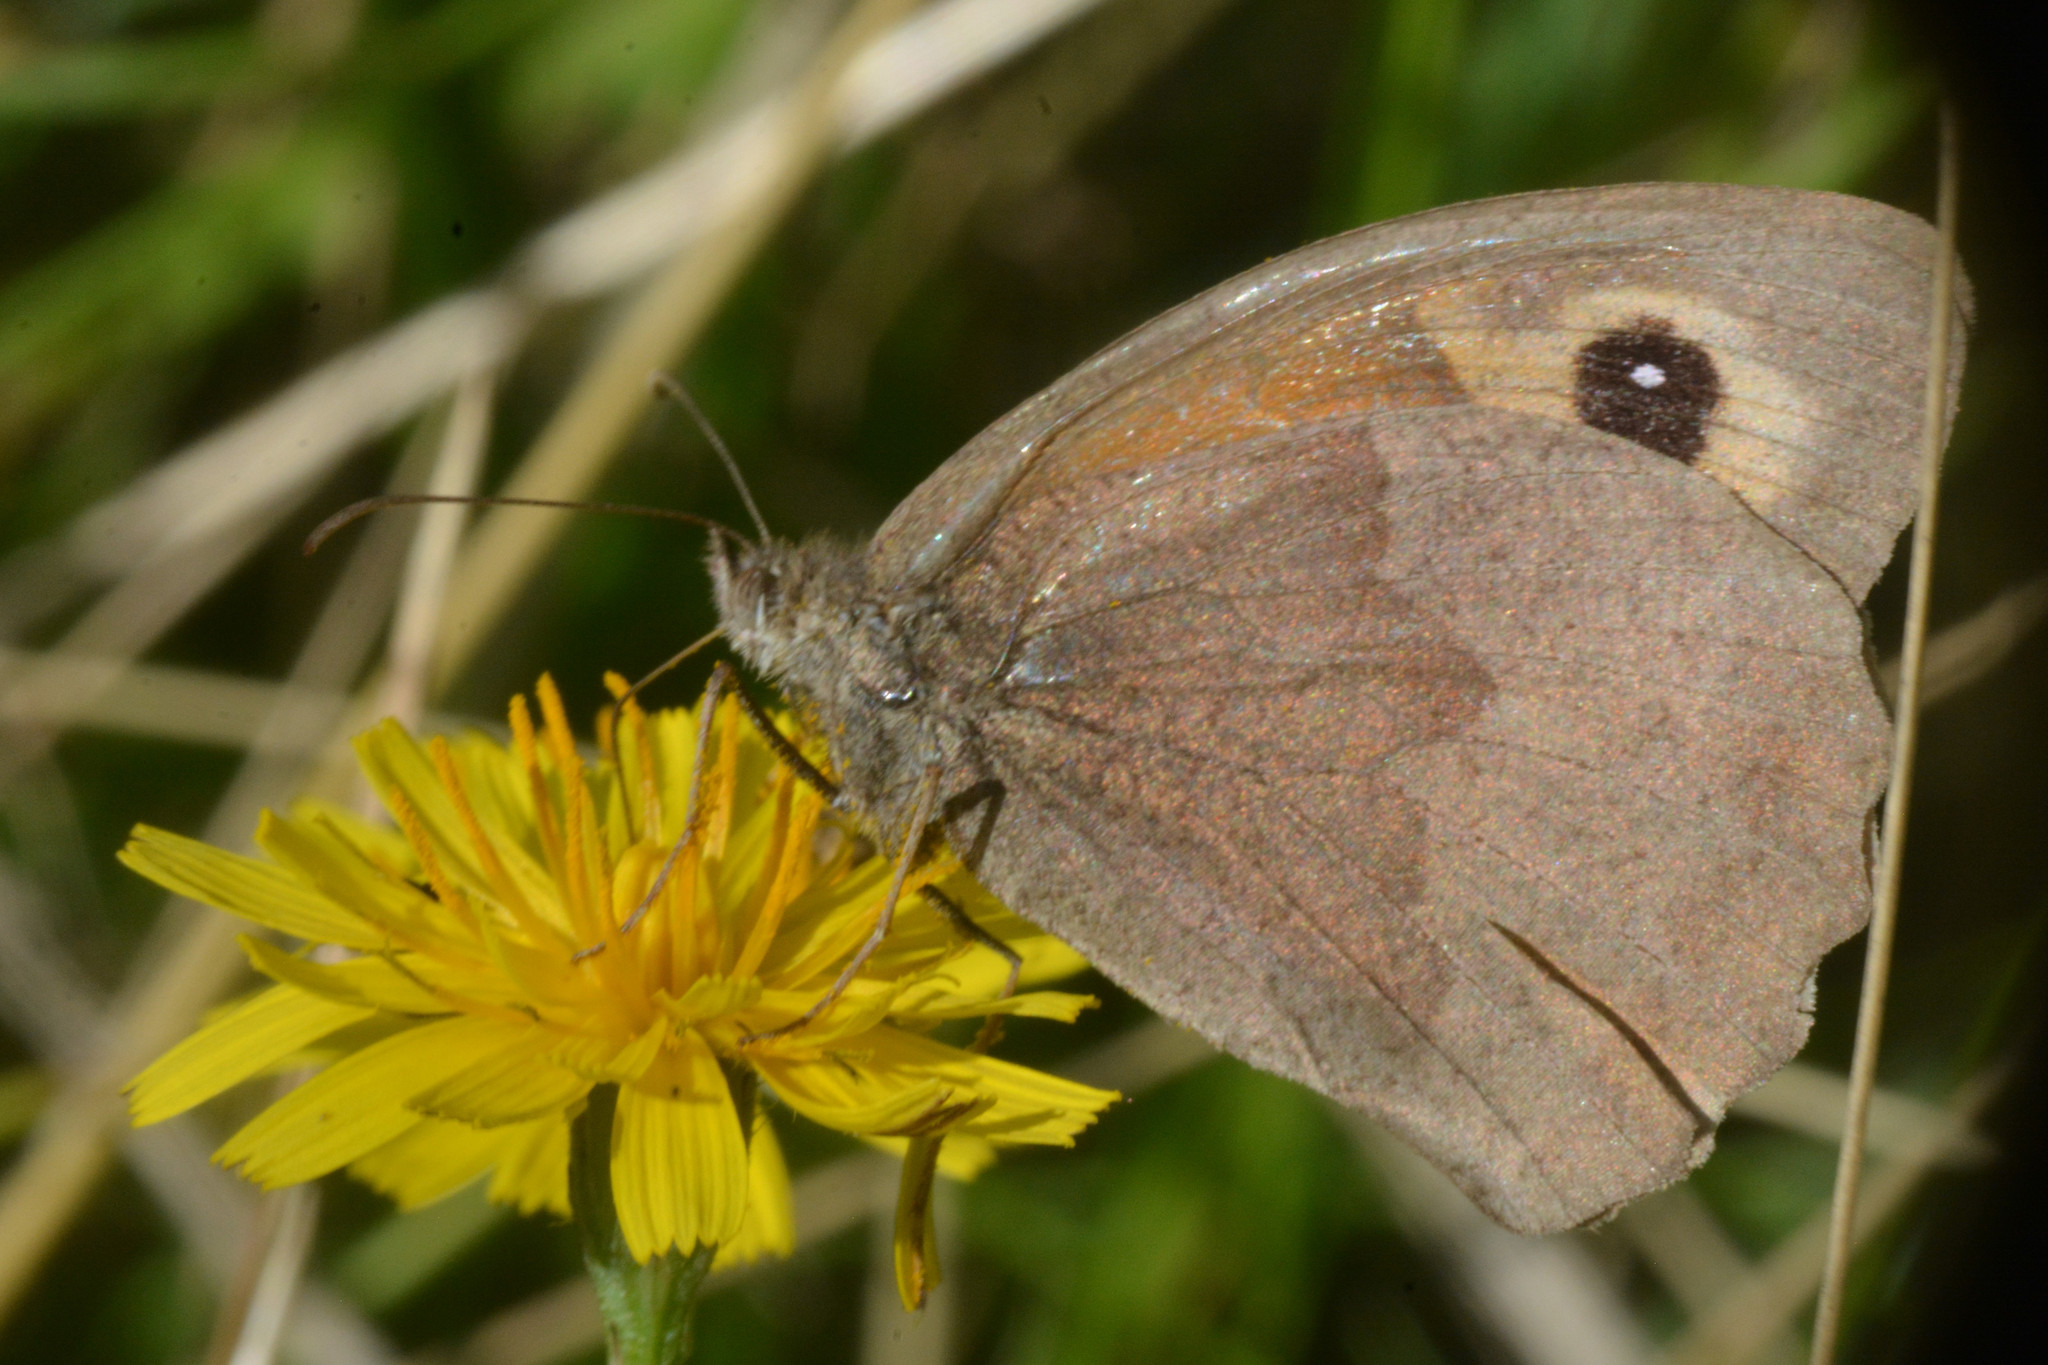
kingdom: Animalia
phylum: Arthropoda
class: Insecta
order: Lepidoptera
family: Nymphalidae
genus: Maniola
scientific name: Maniola jurtina
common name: Meadow brown
